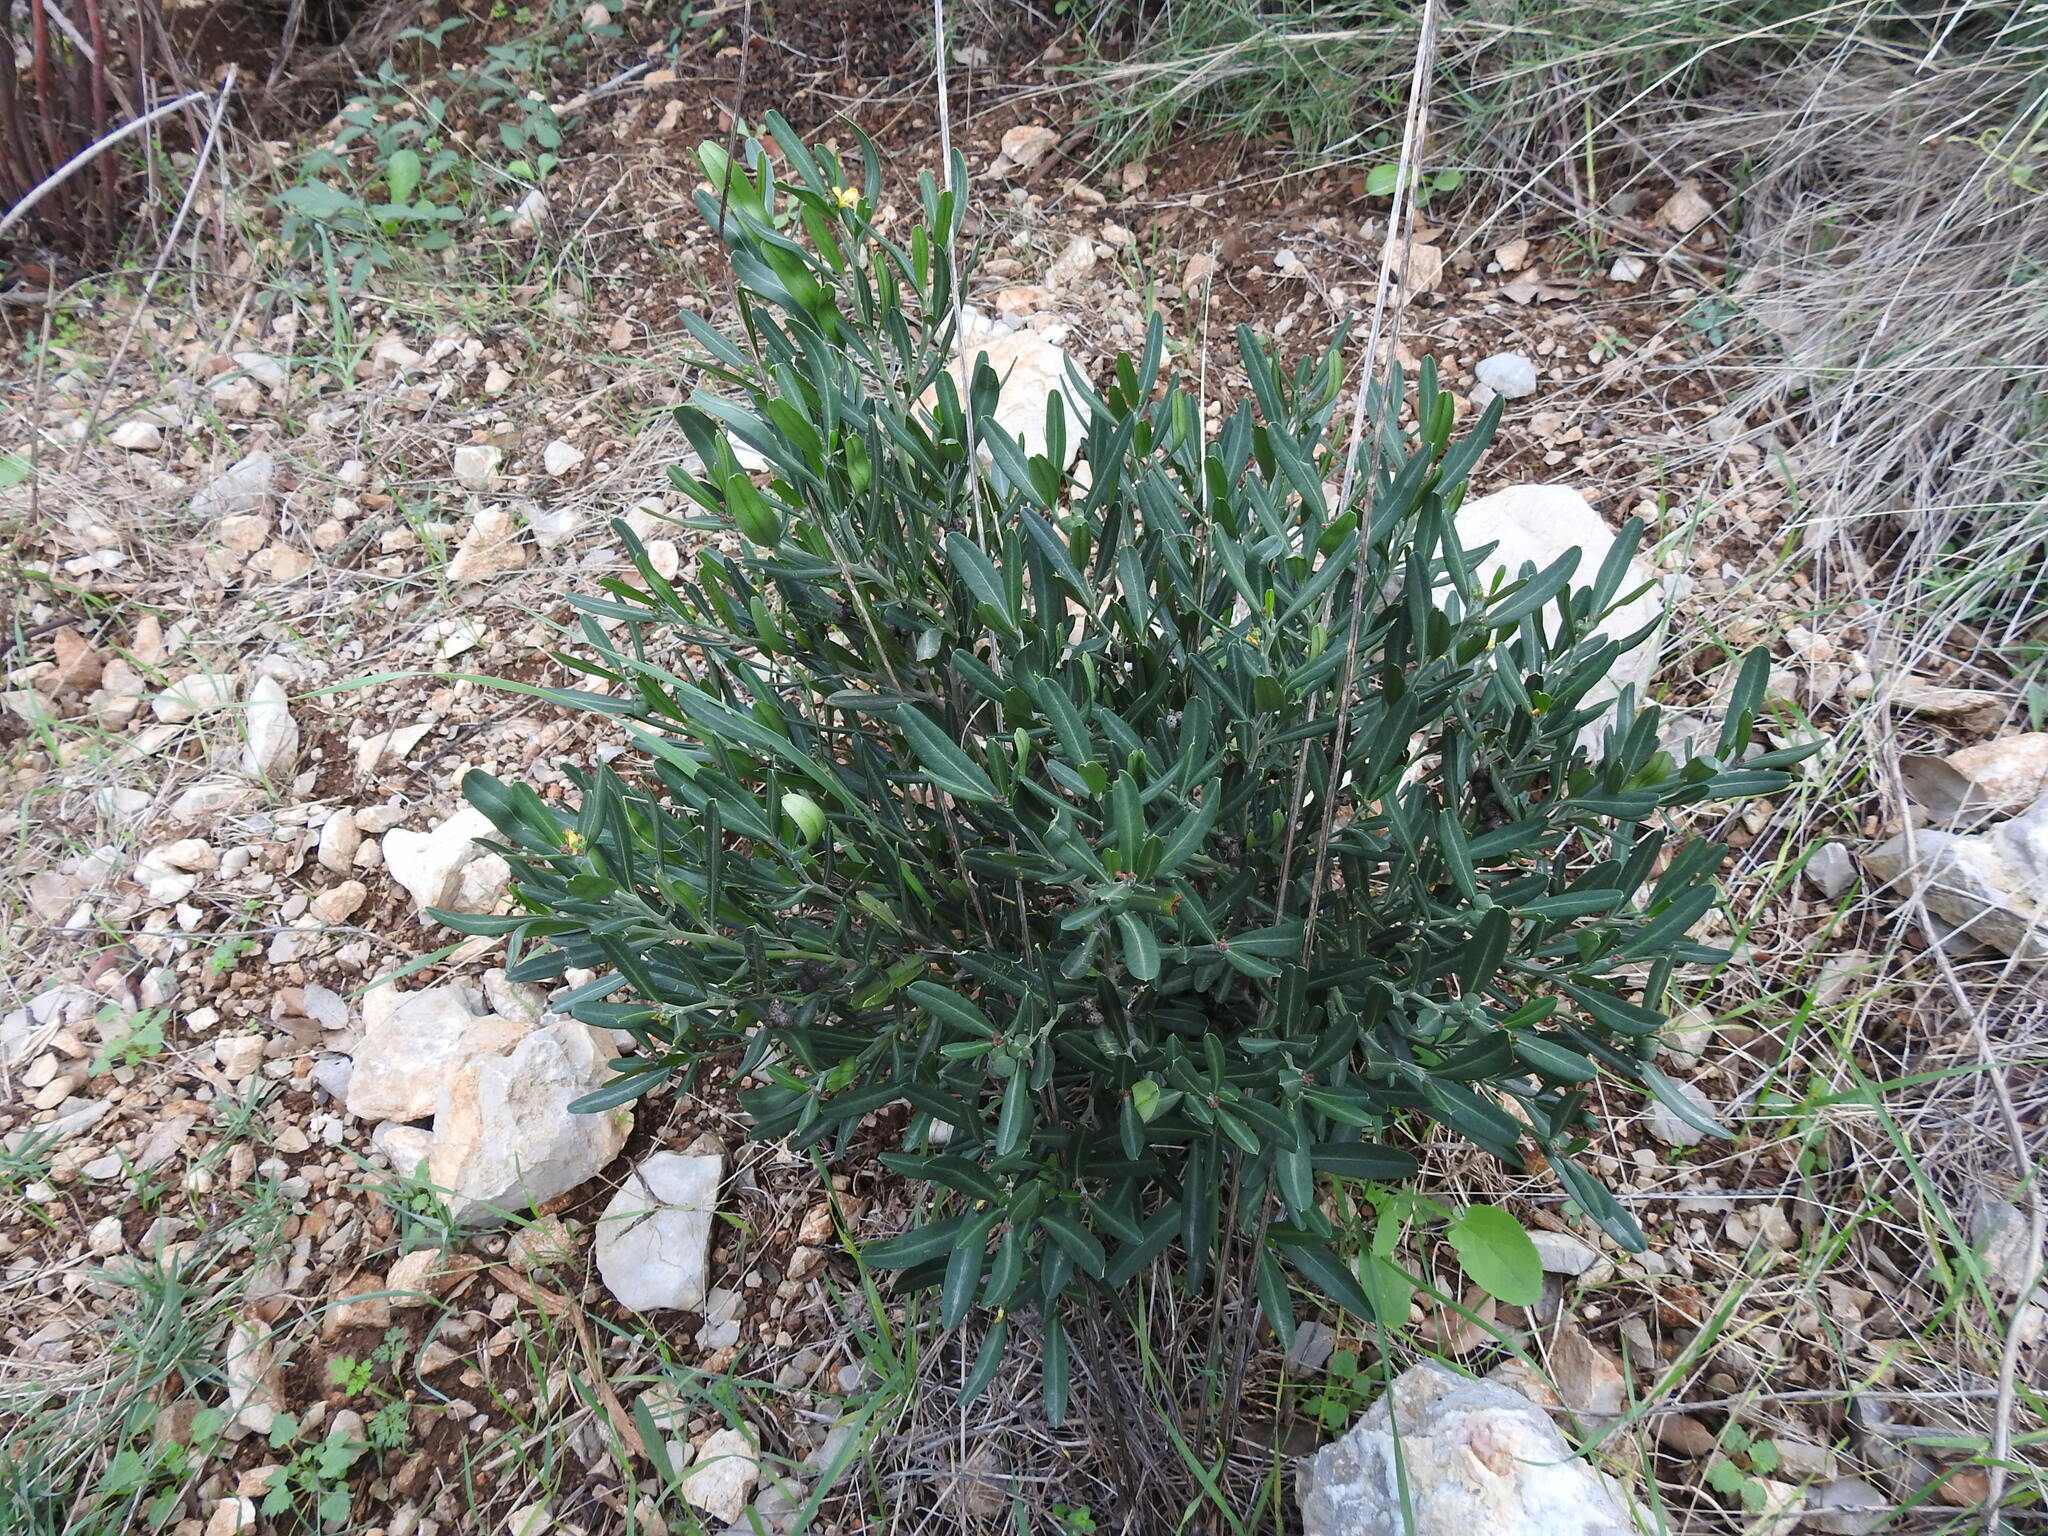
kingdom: Plantae
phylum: Tracheophyta
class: Magnoliopsida
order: Sapindales
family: Rutaceae
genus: Cneorum
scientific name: Cneorum tricoccon
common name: Spurge olive
